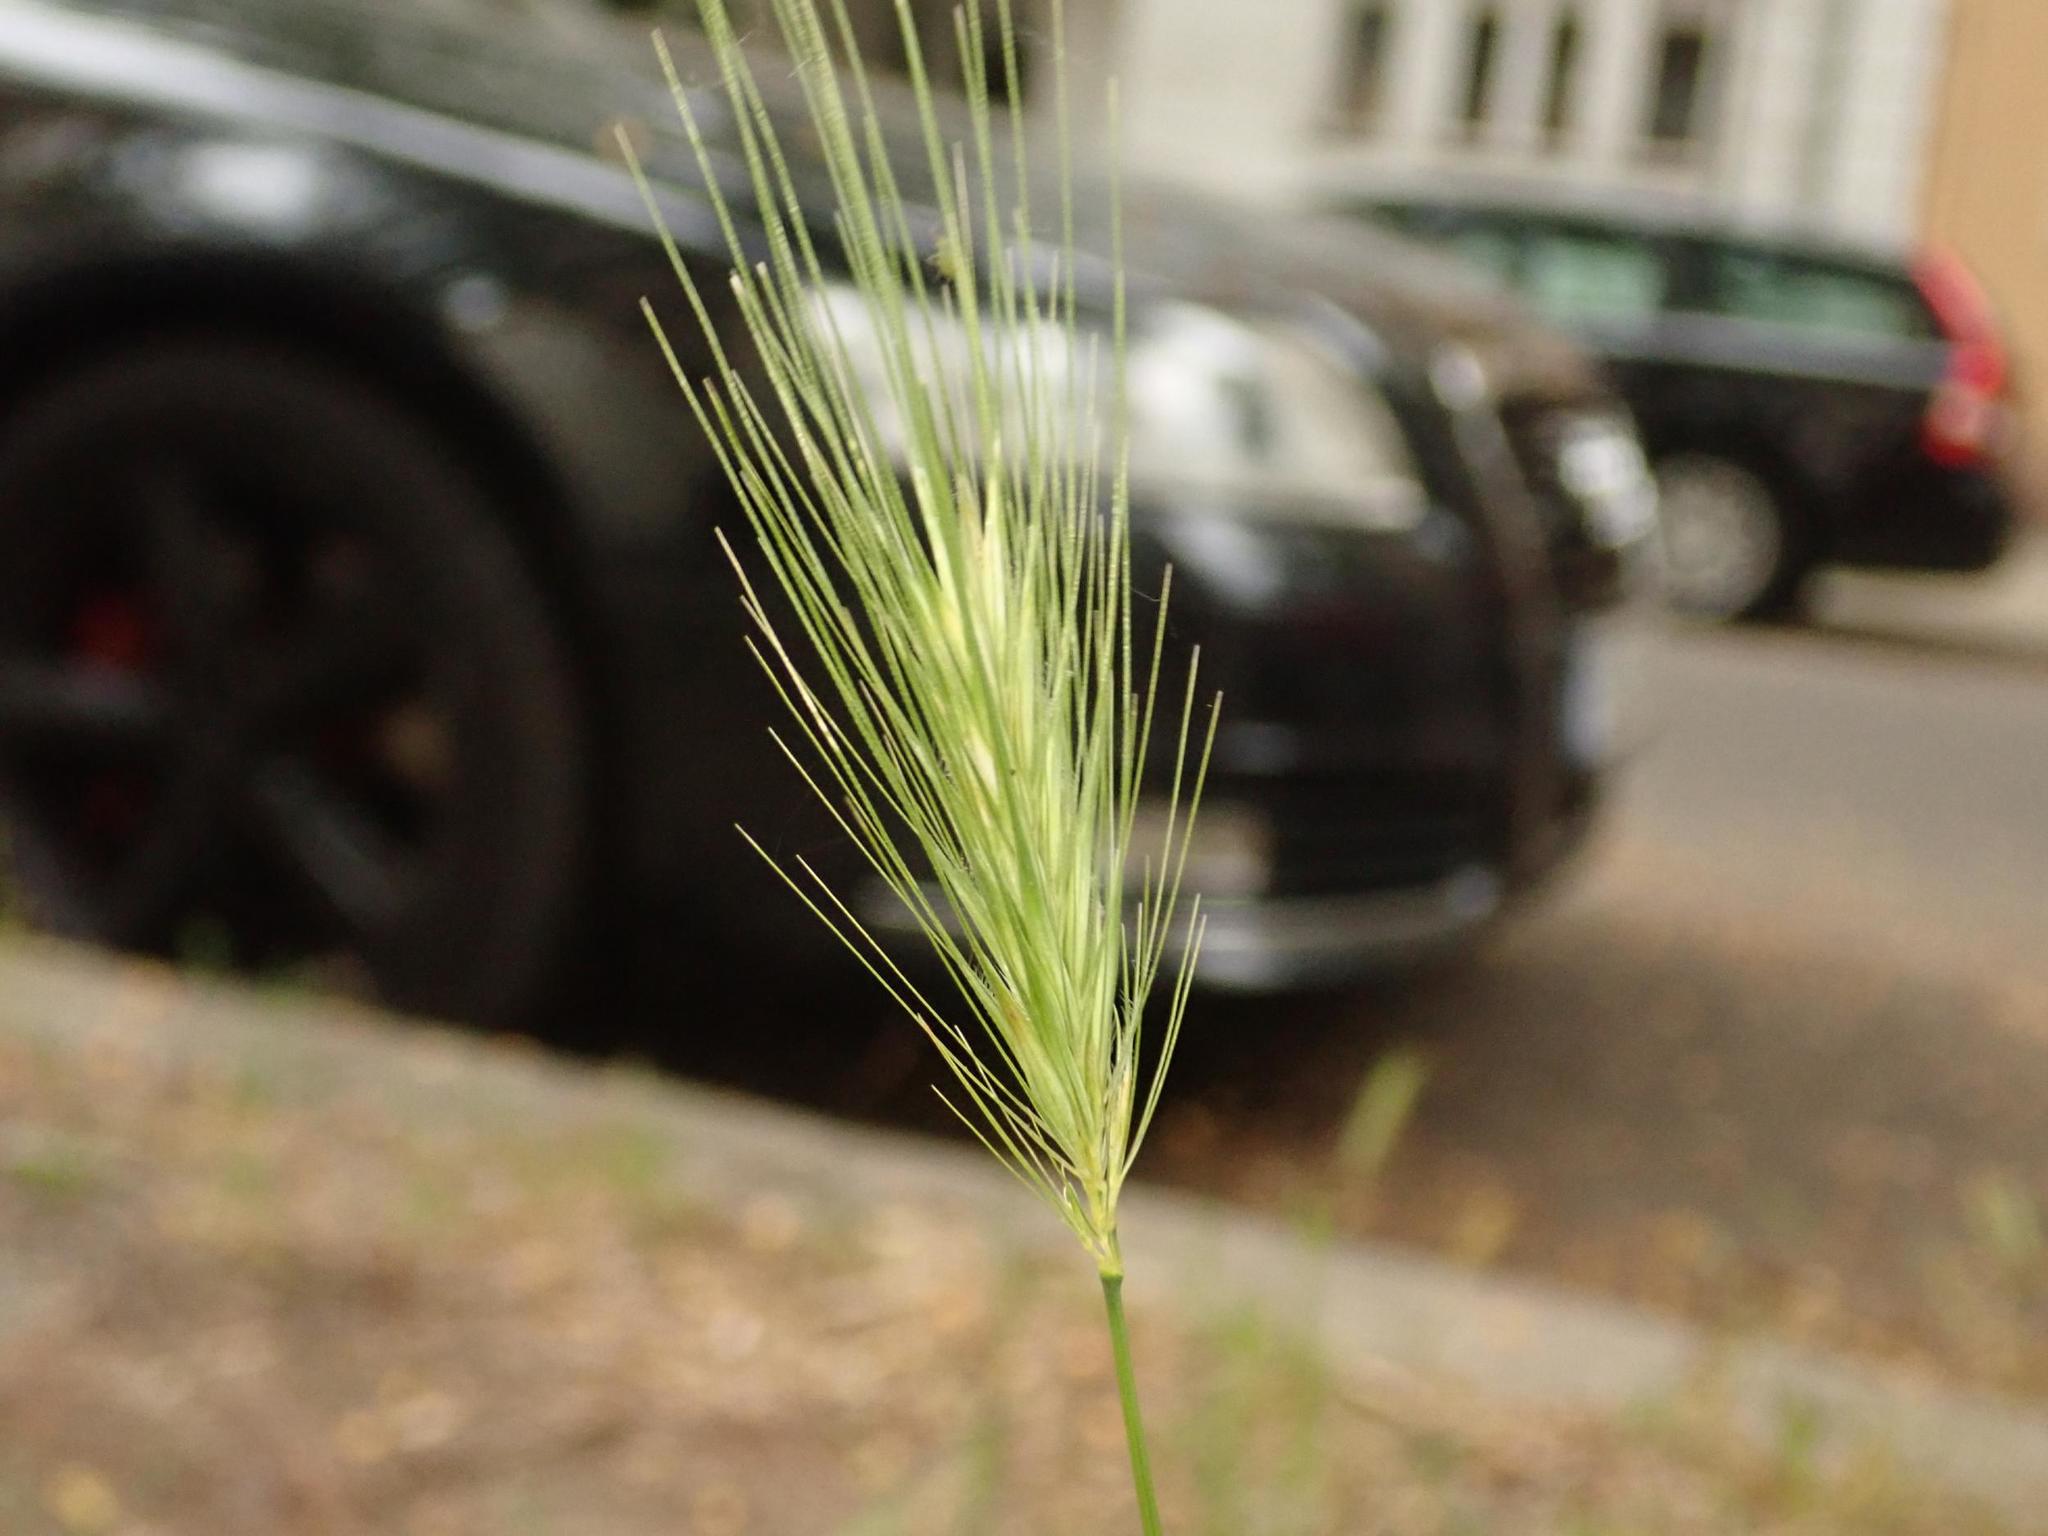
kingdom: Plantae
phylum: Tracheophyta
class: Liliopsida
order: Poales
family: Poaceae
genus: Hordeum
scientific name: Hordeum murinum
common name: Wall barley
